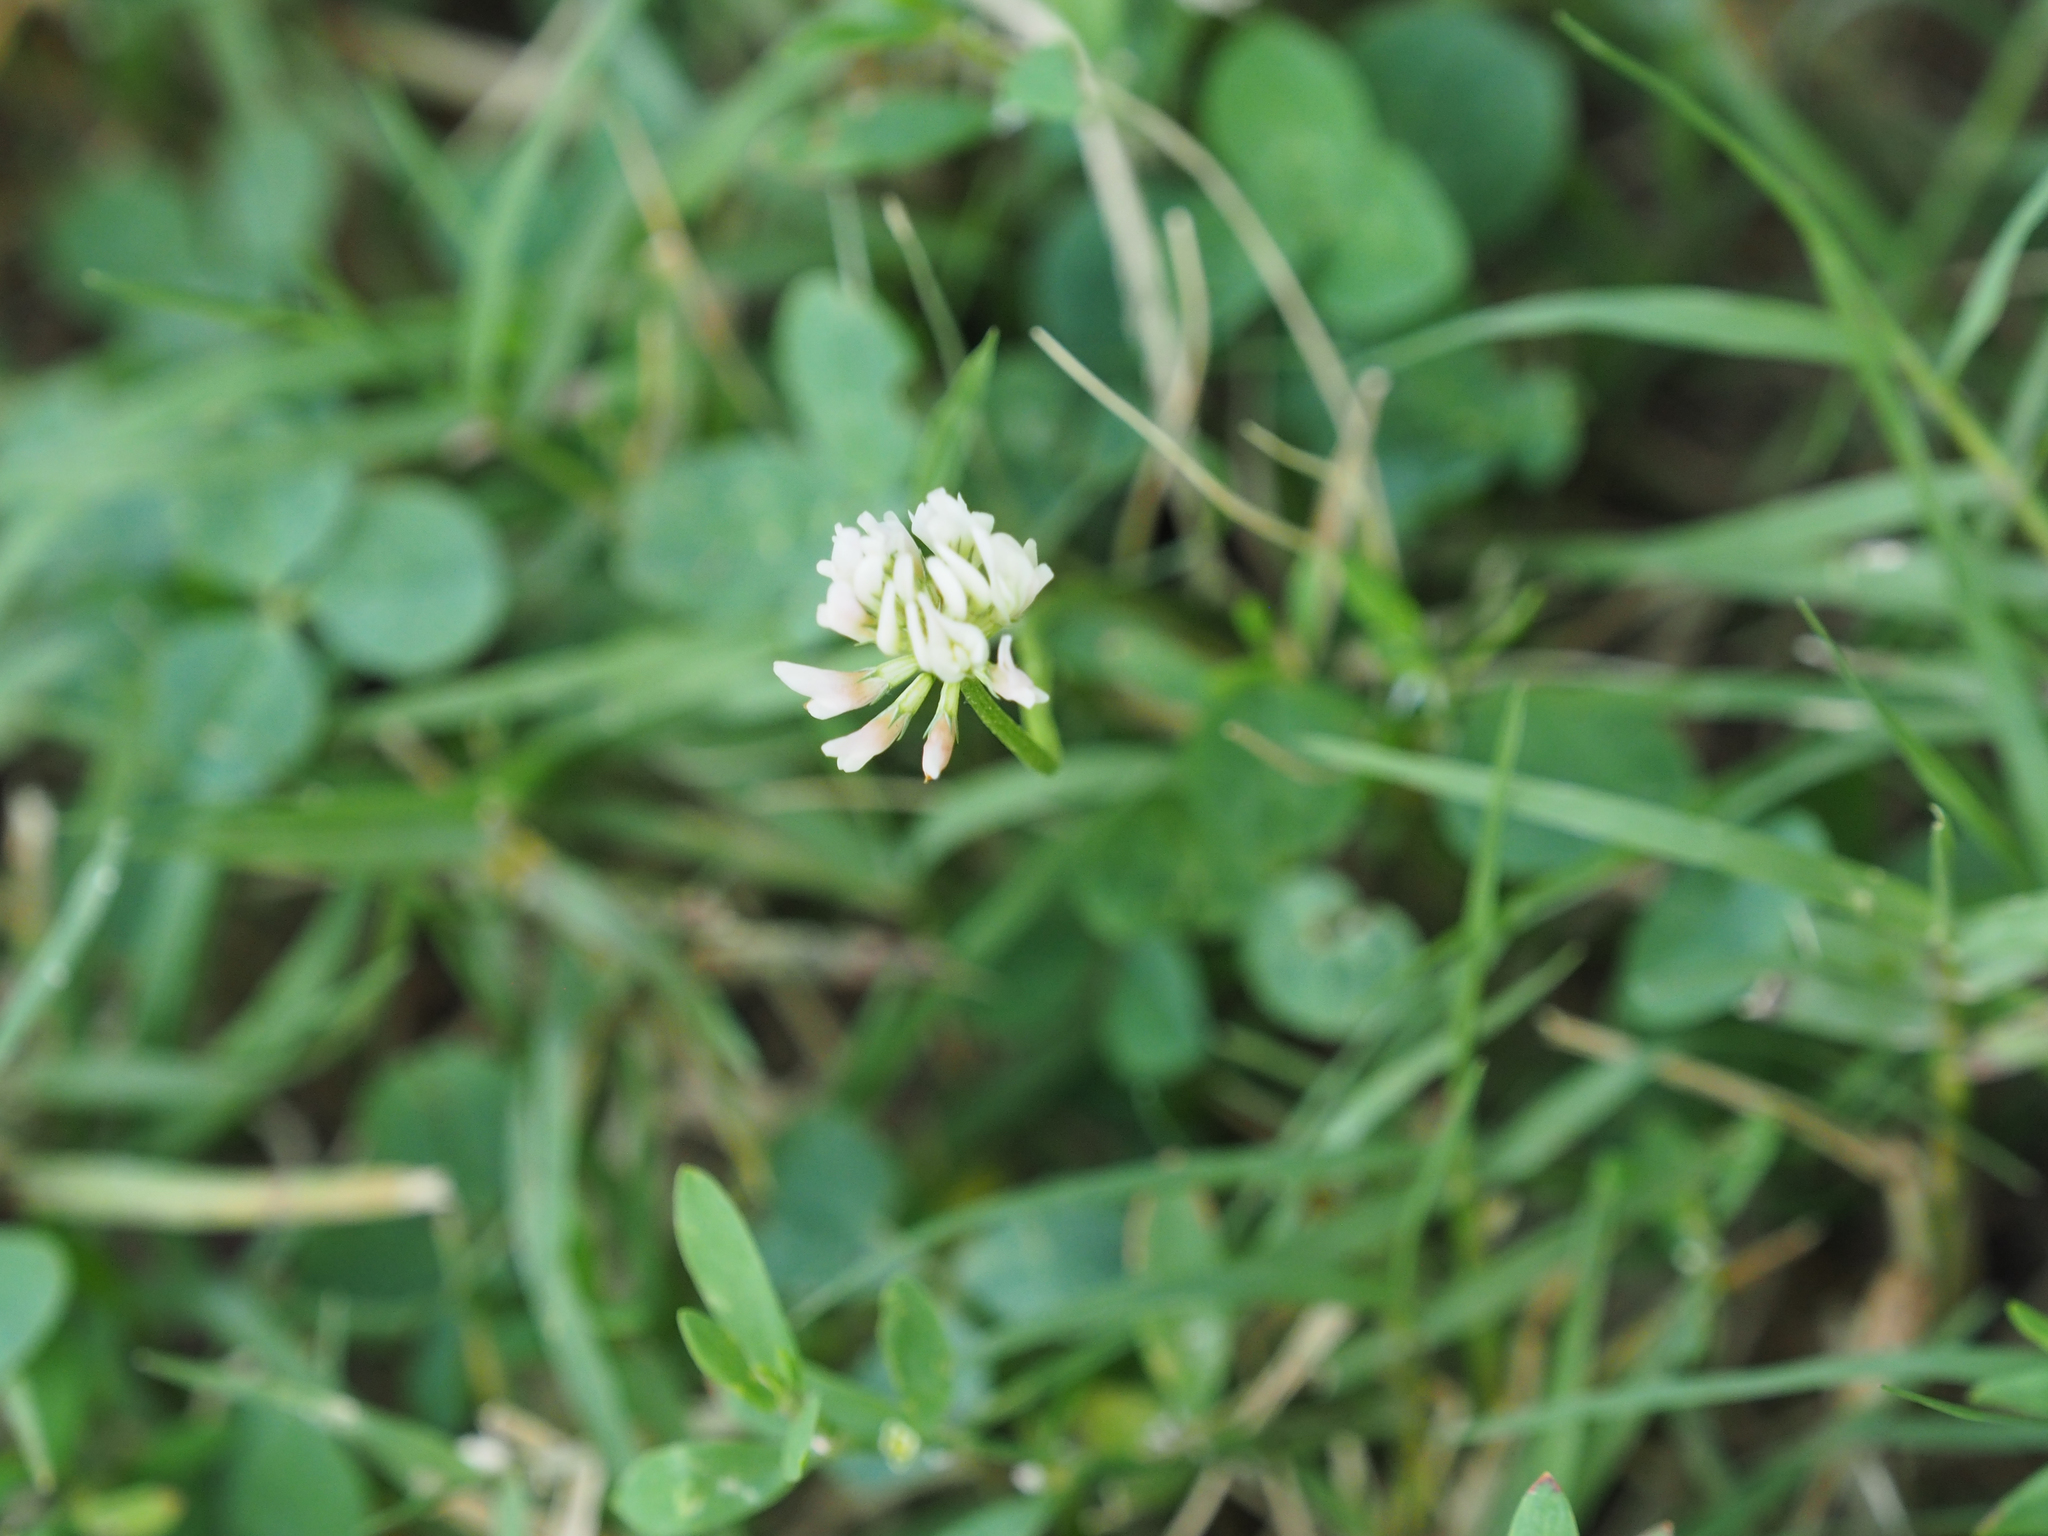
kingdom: Plantae
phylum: Tracheophyta
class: Magnoliopsida
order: Fabales
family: Fabaceae
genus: Trifolium
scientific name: Trifolium repens
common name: White clover
